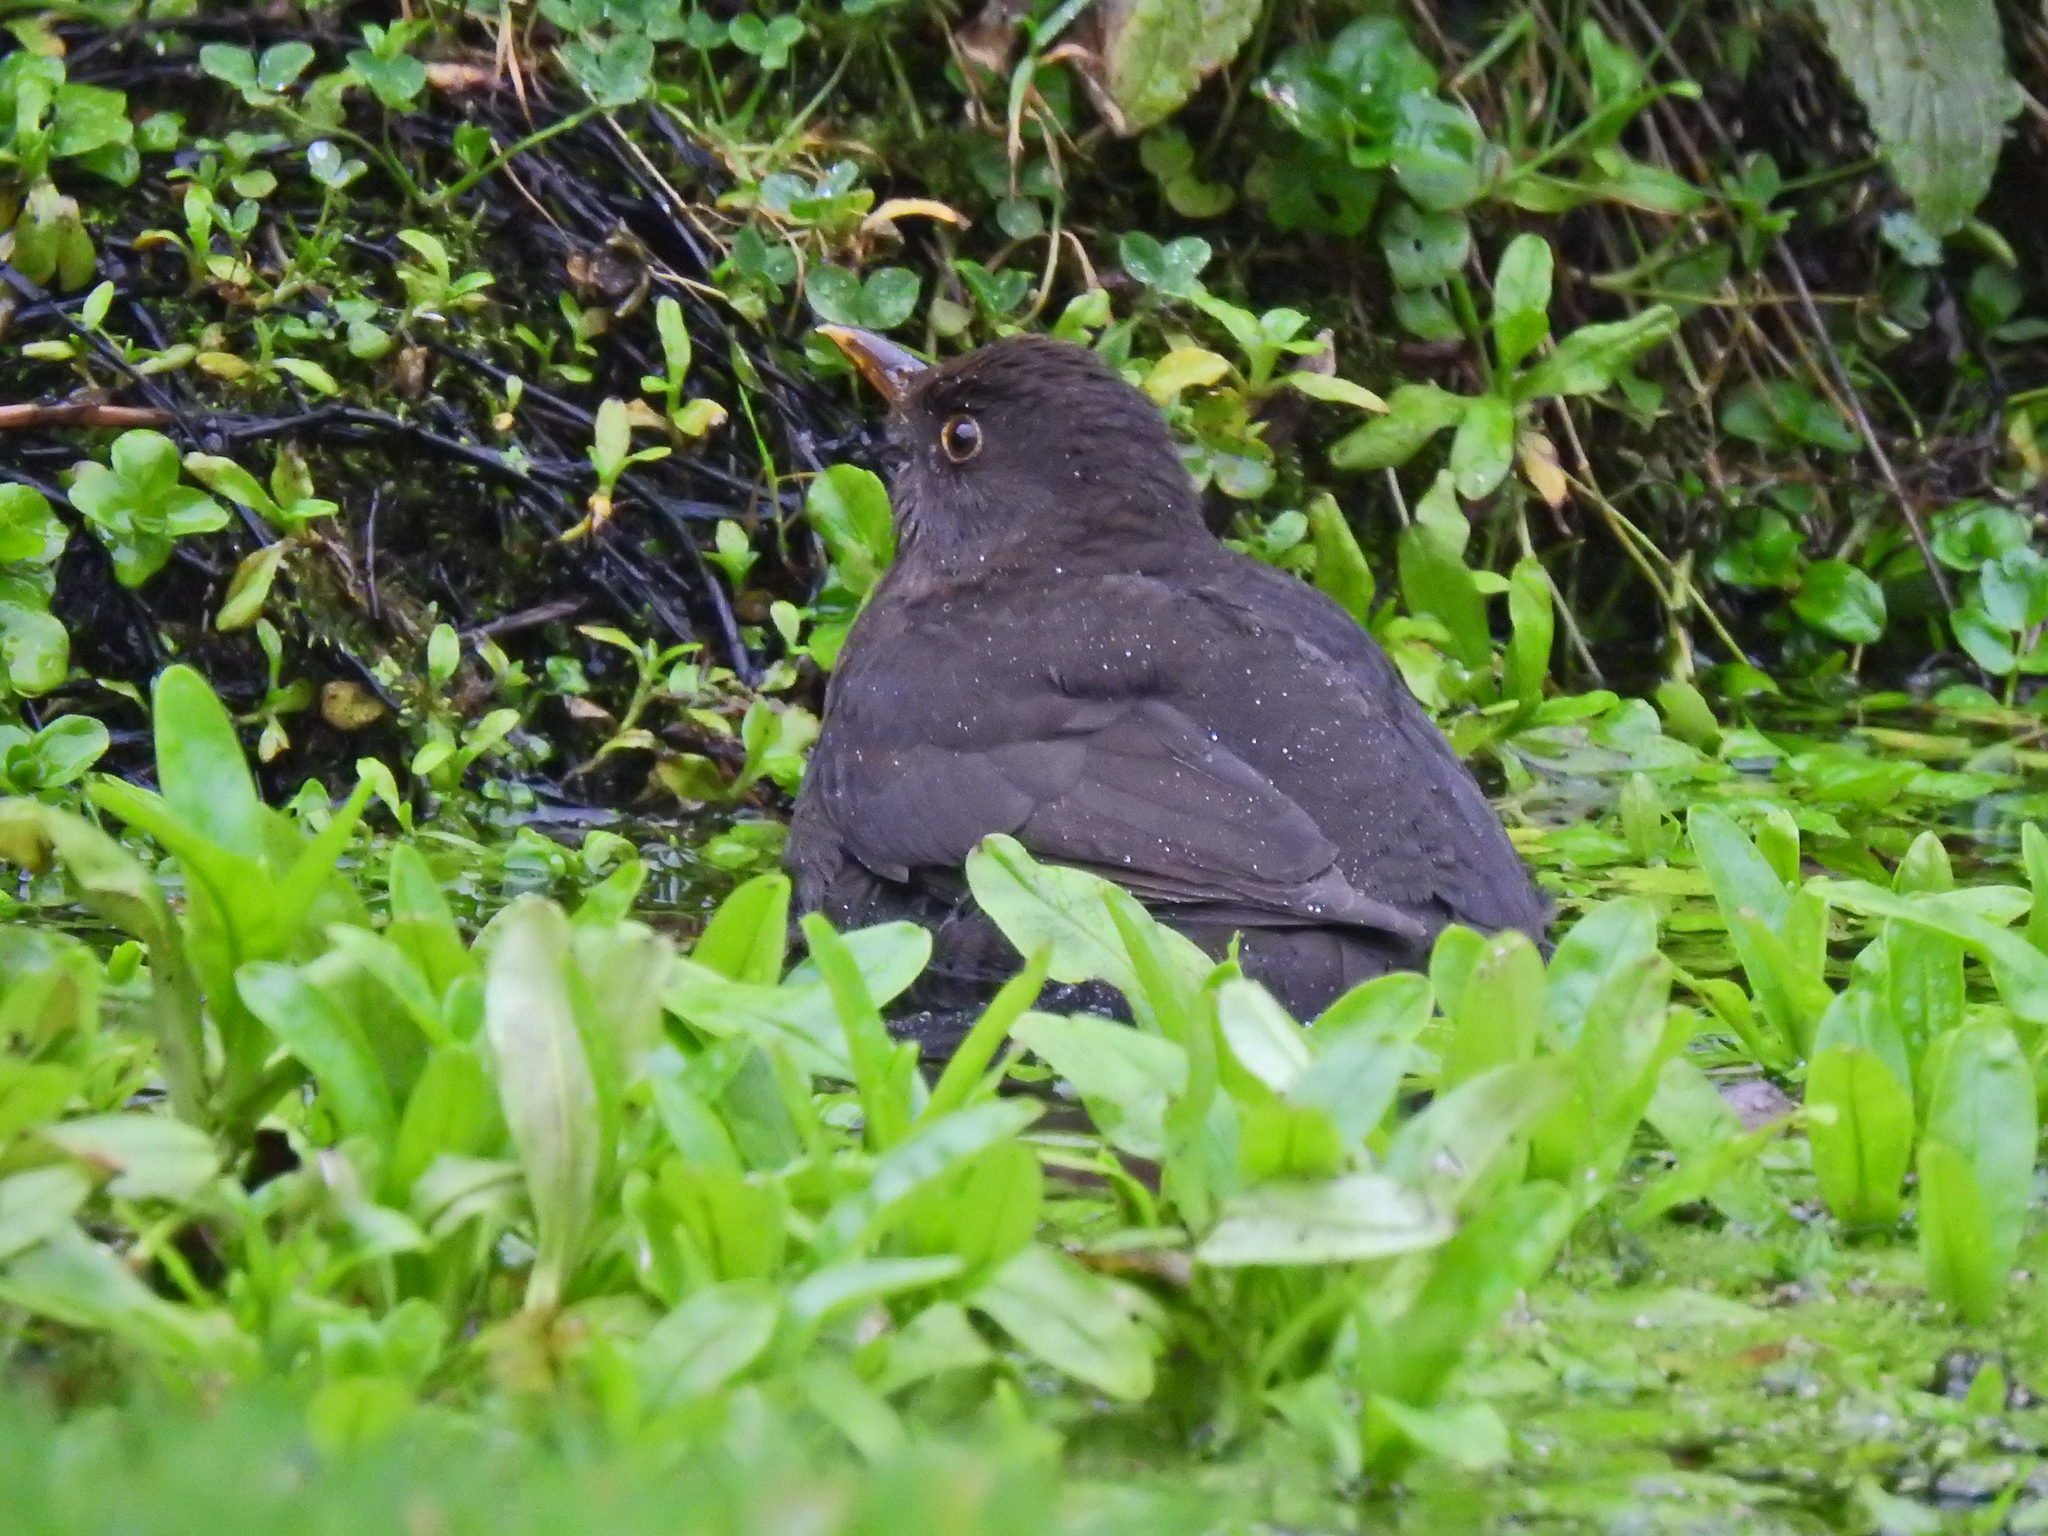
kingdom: Animalia
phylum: Chordata
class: Aves
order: Passeriformes
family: Turdidae
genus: Turdus
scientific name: Turdus merula
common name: Common blackbird
